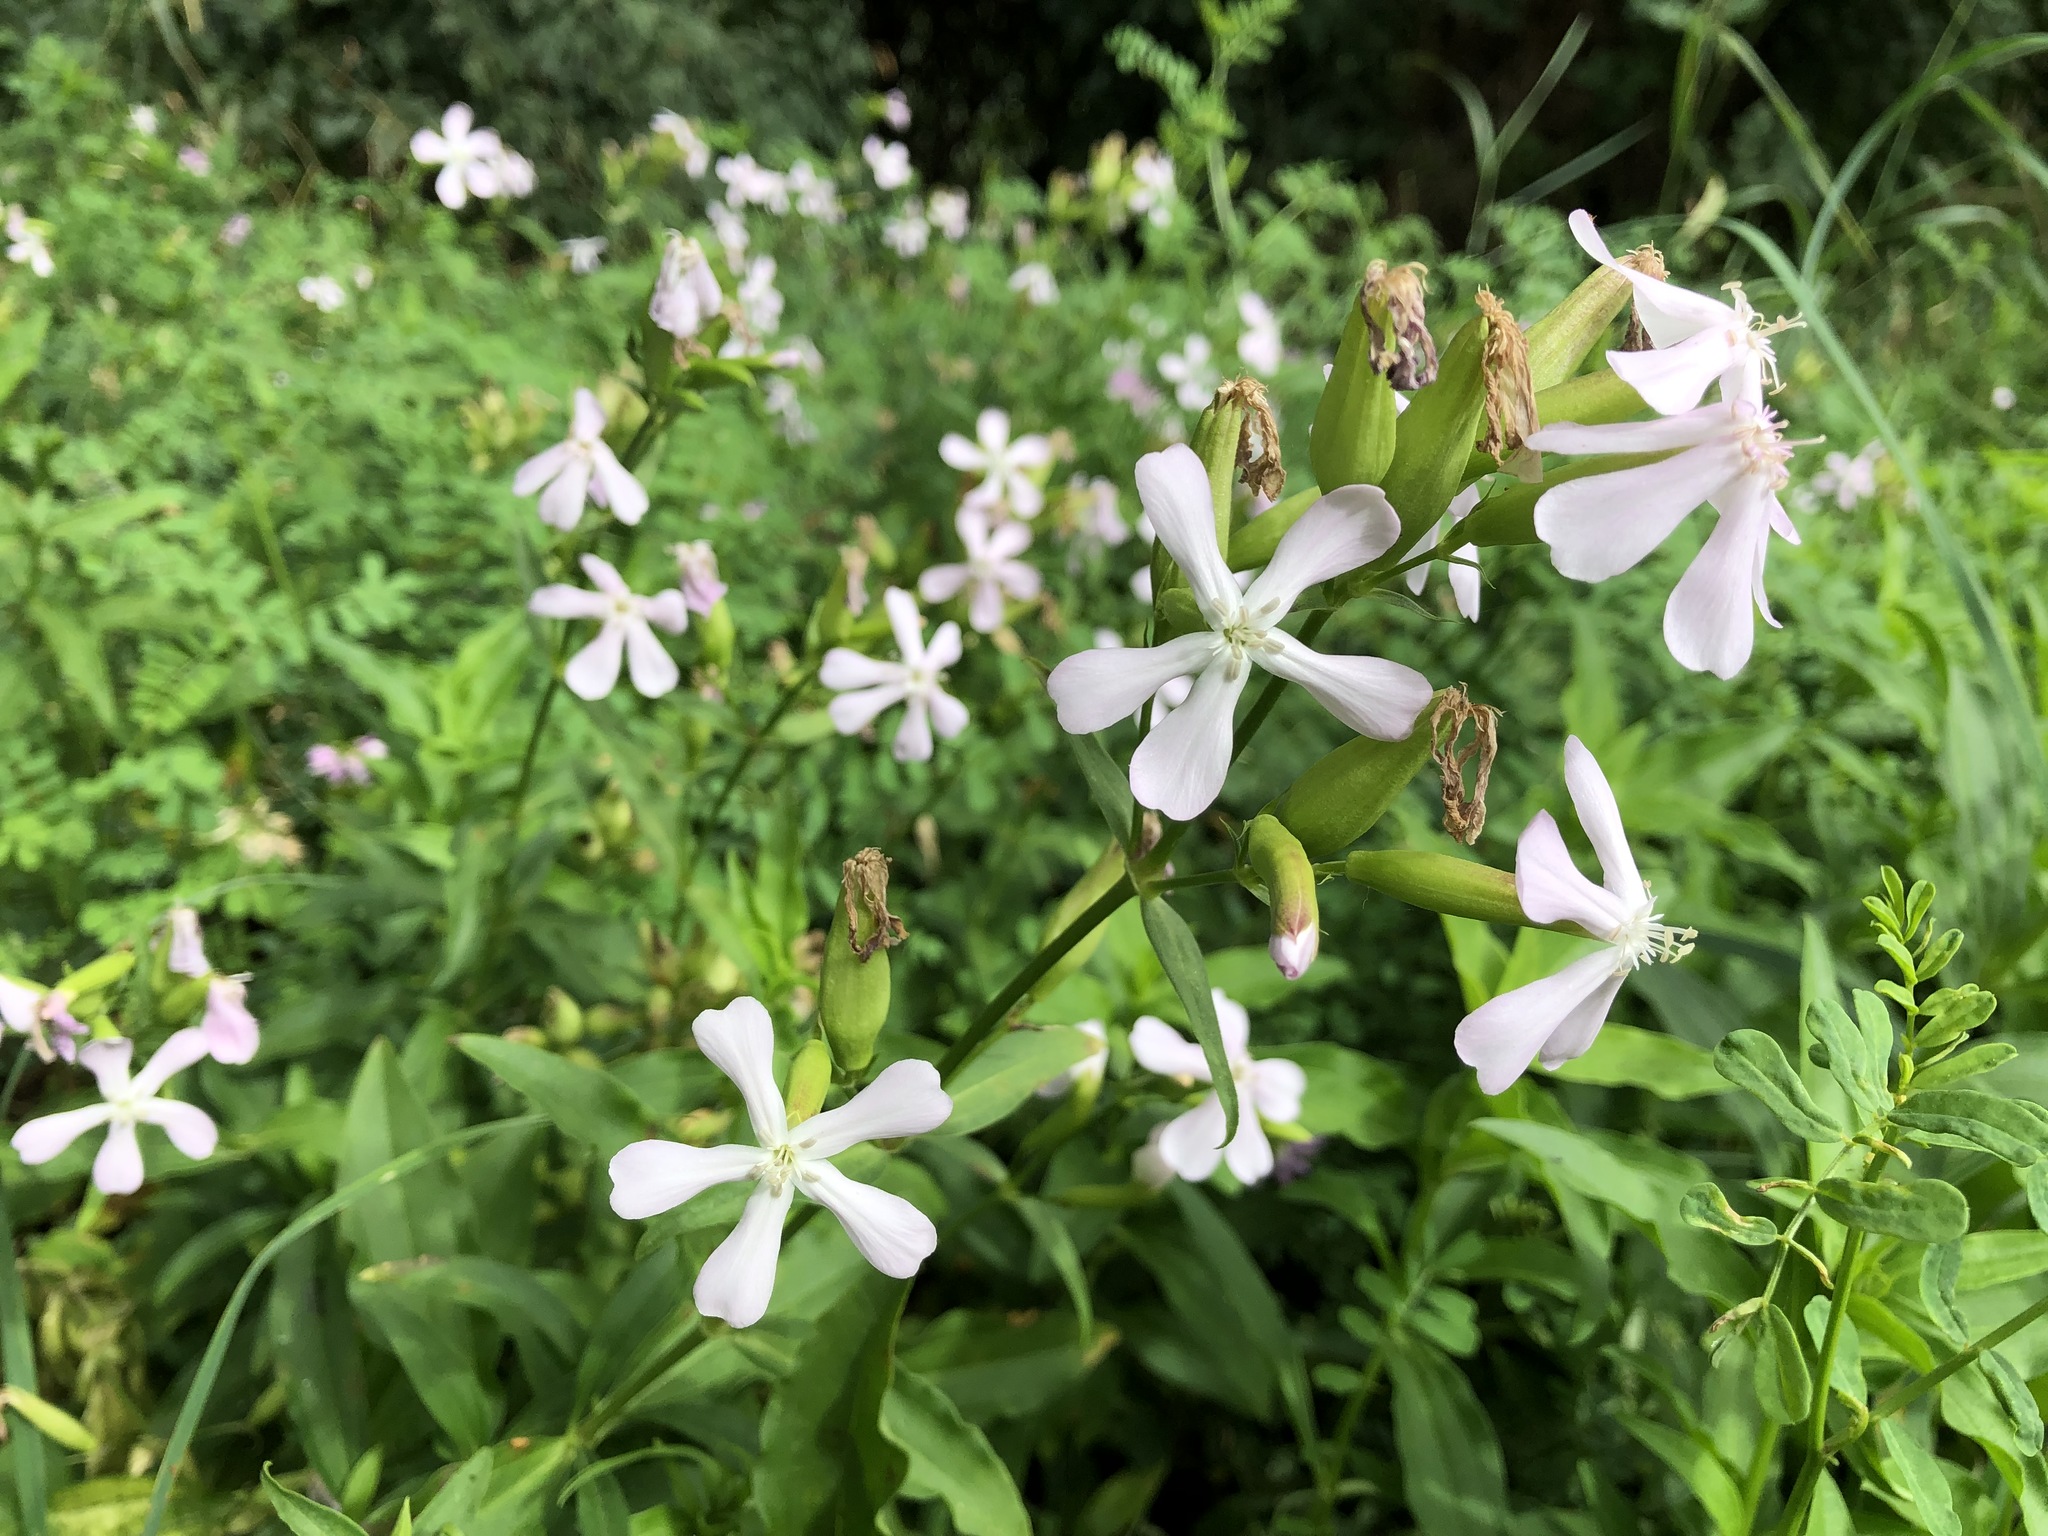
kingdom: Plantae
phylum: Tracheophyta
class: Magnoliopsida
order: Caryophyllales
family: Caryophyllaceae
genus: Saponaria
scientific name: Saponaria officinalis
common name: Soapwort
